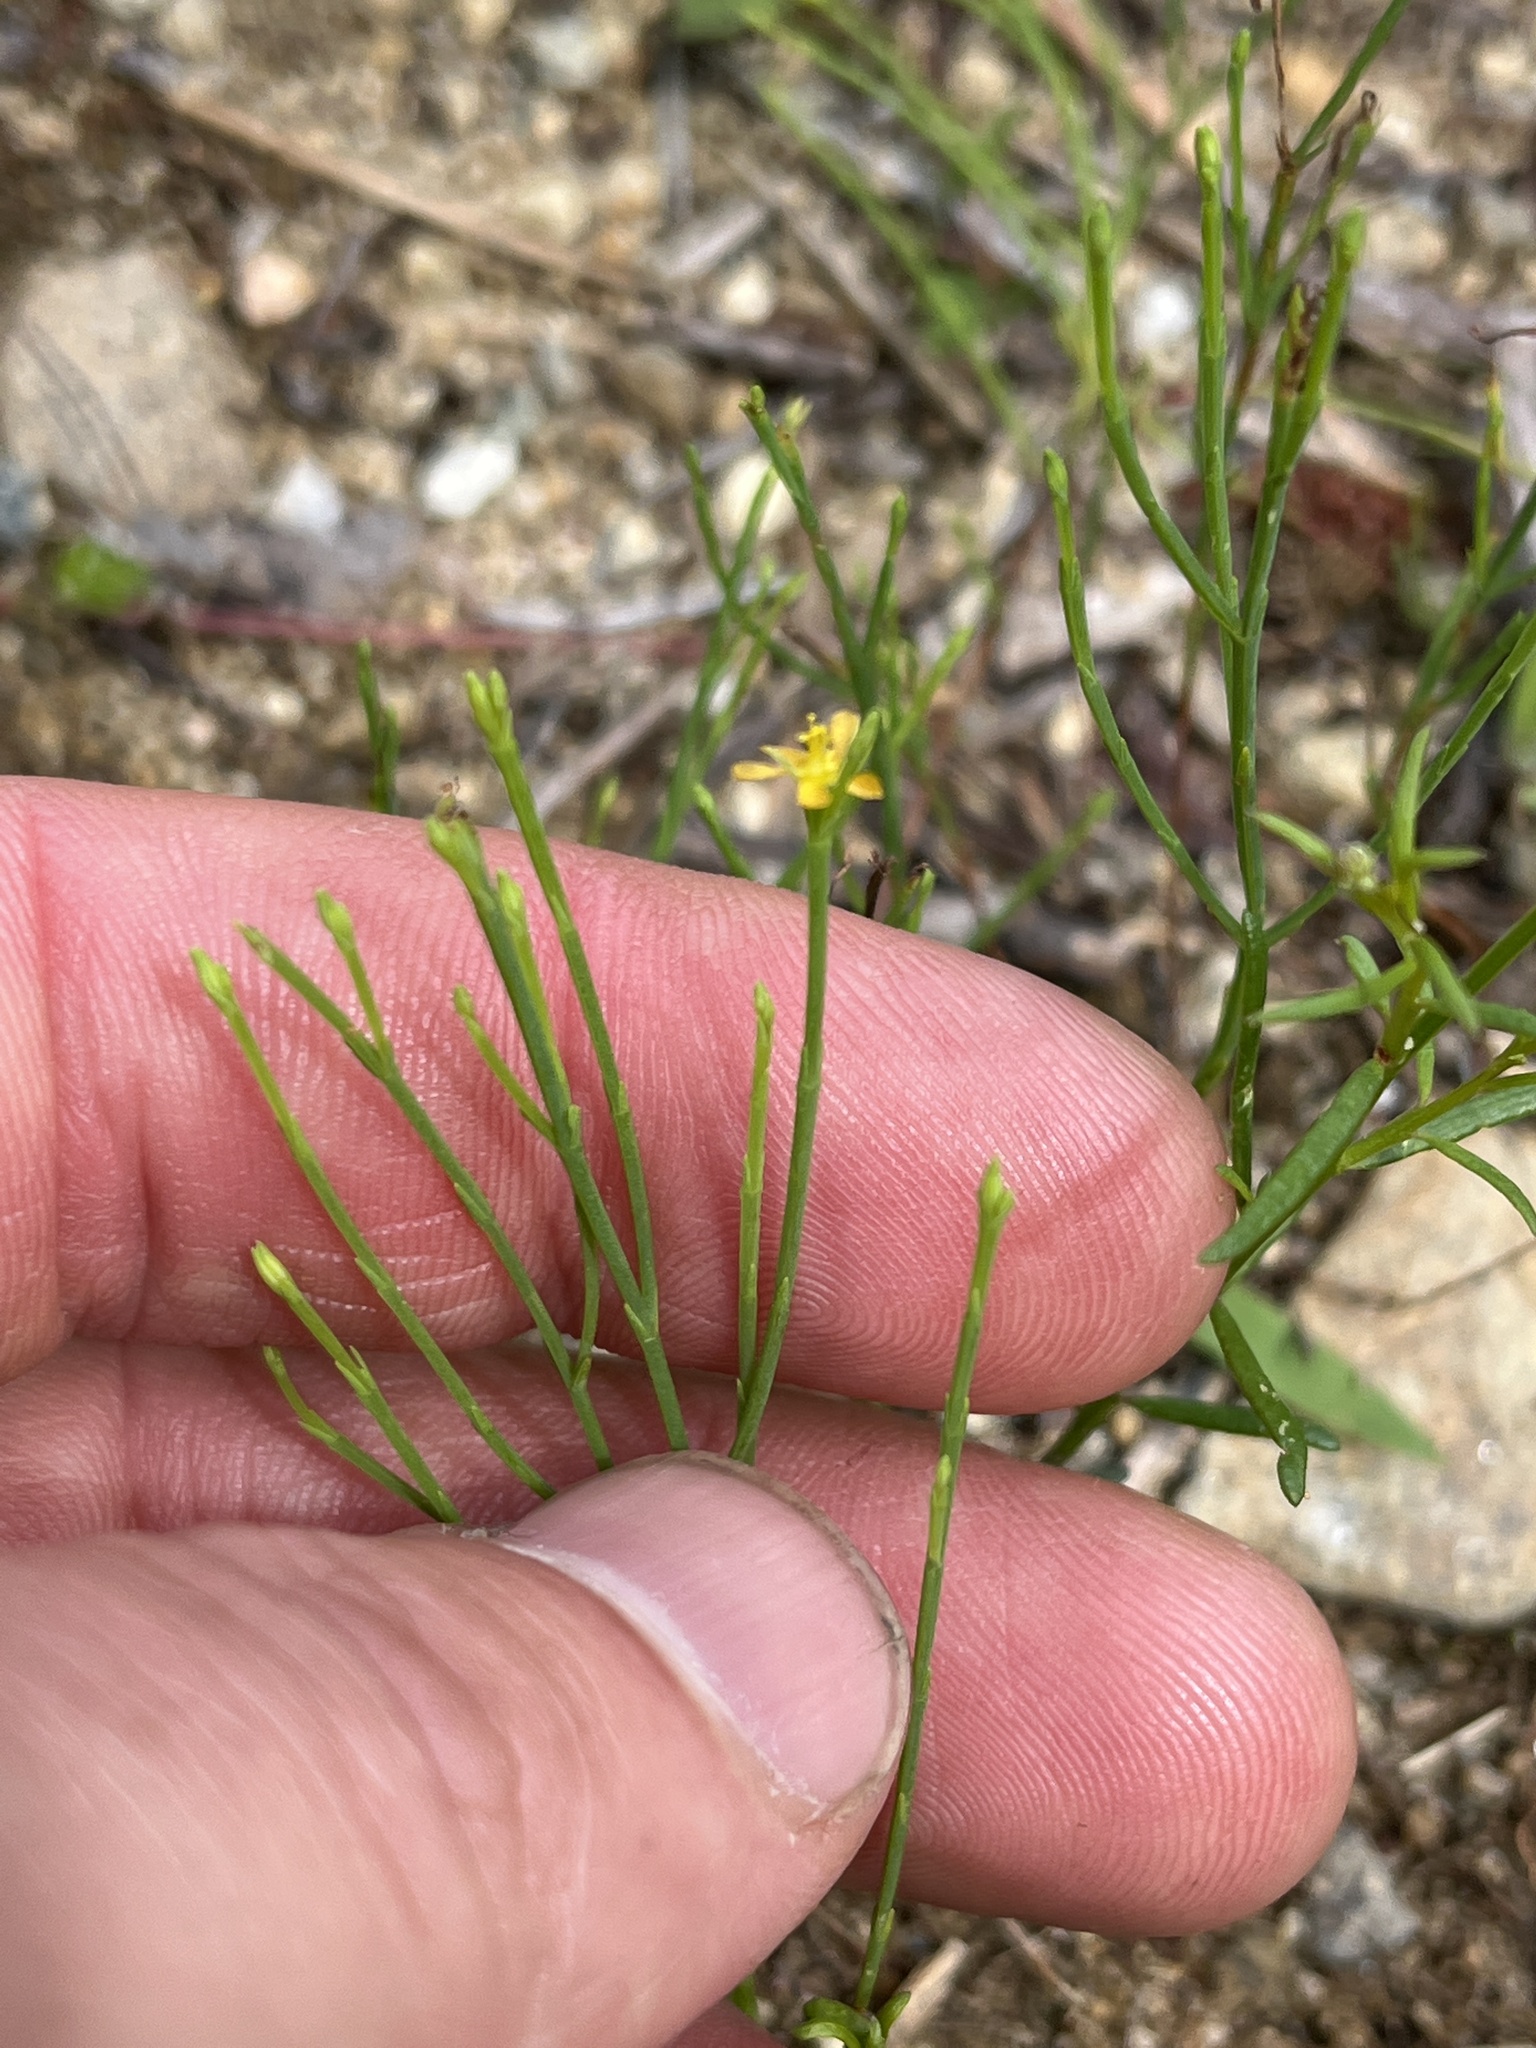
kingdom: Plantae
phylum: Tracheophyta
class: Magnoliopsida
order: Malpighiales
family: Hypericaceae
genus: Hypericum
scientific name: Hypericum gentianoides
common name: Gentian-leaved st. john's-wort
